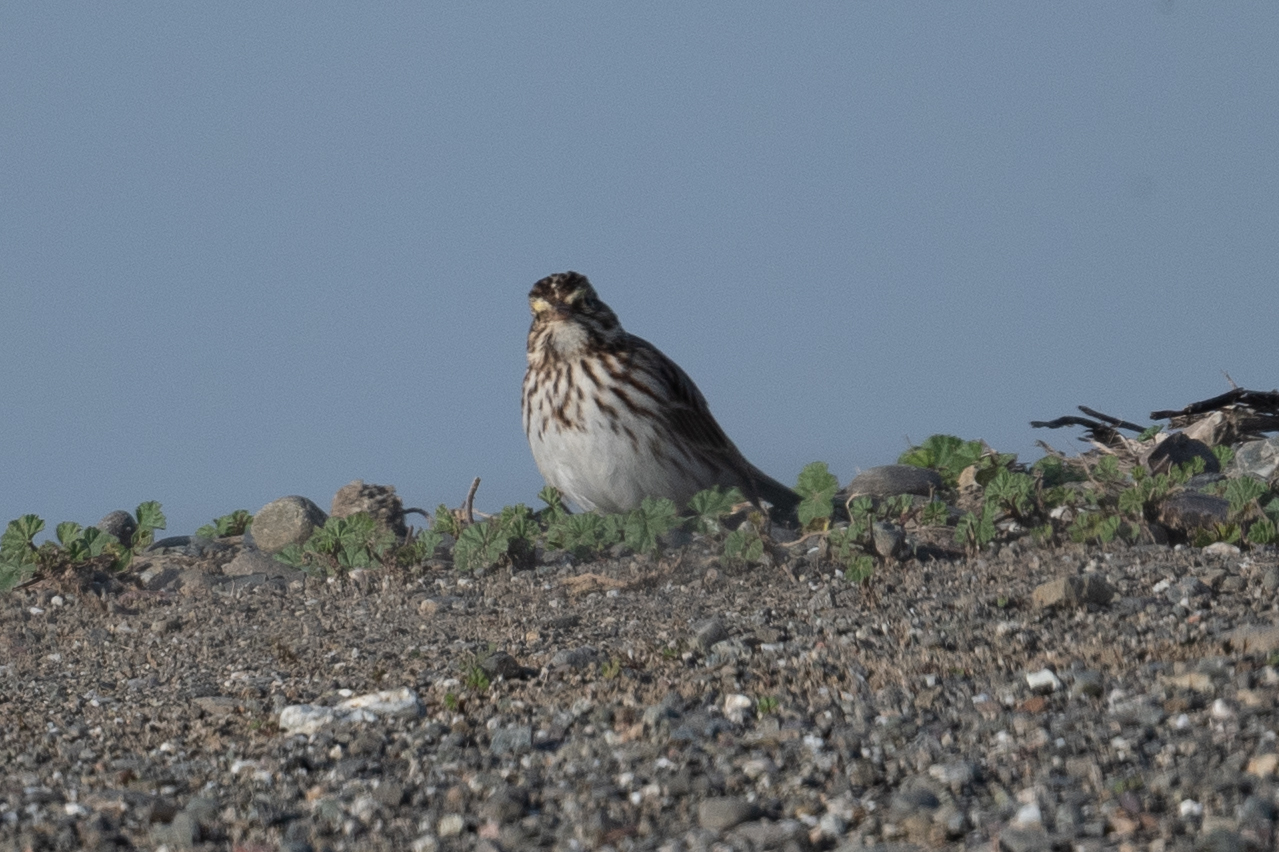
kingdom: Animalia
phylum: Chordata
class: Aves
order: Passeriformes
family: Passerellidae
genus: Passerculus
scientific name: Passerculus sandwichensis
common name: Savannah sparrow
